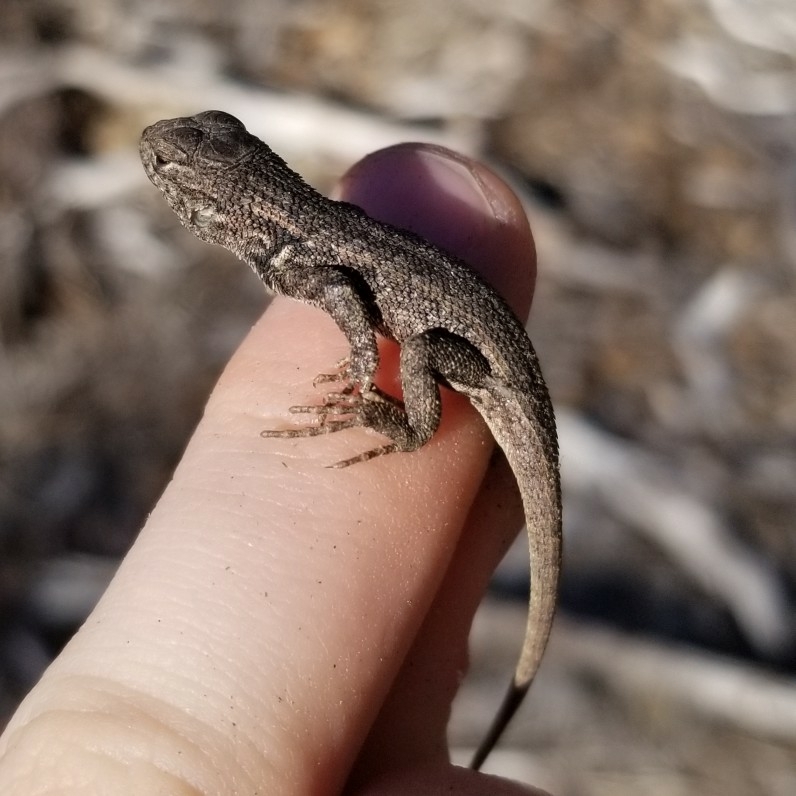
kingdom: Animalia
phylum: Chordata
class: Squamata
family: Phrynosomatidae
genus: Sceloporus
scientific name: Sceloporus graciosus
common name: Sagebrush lizard
